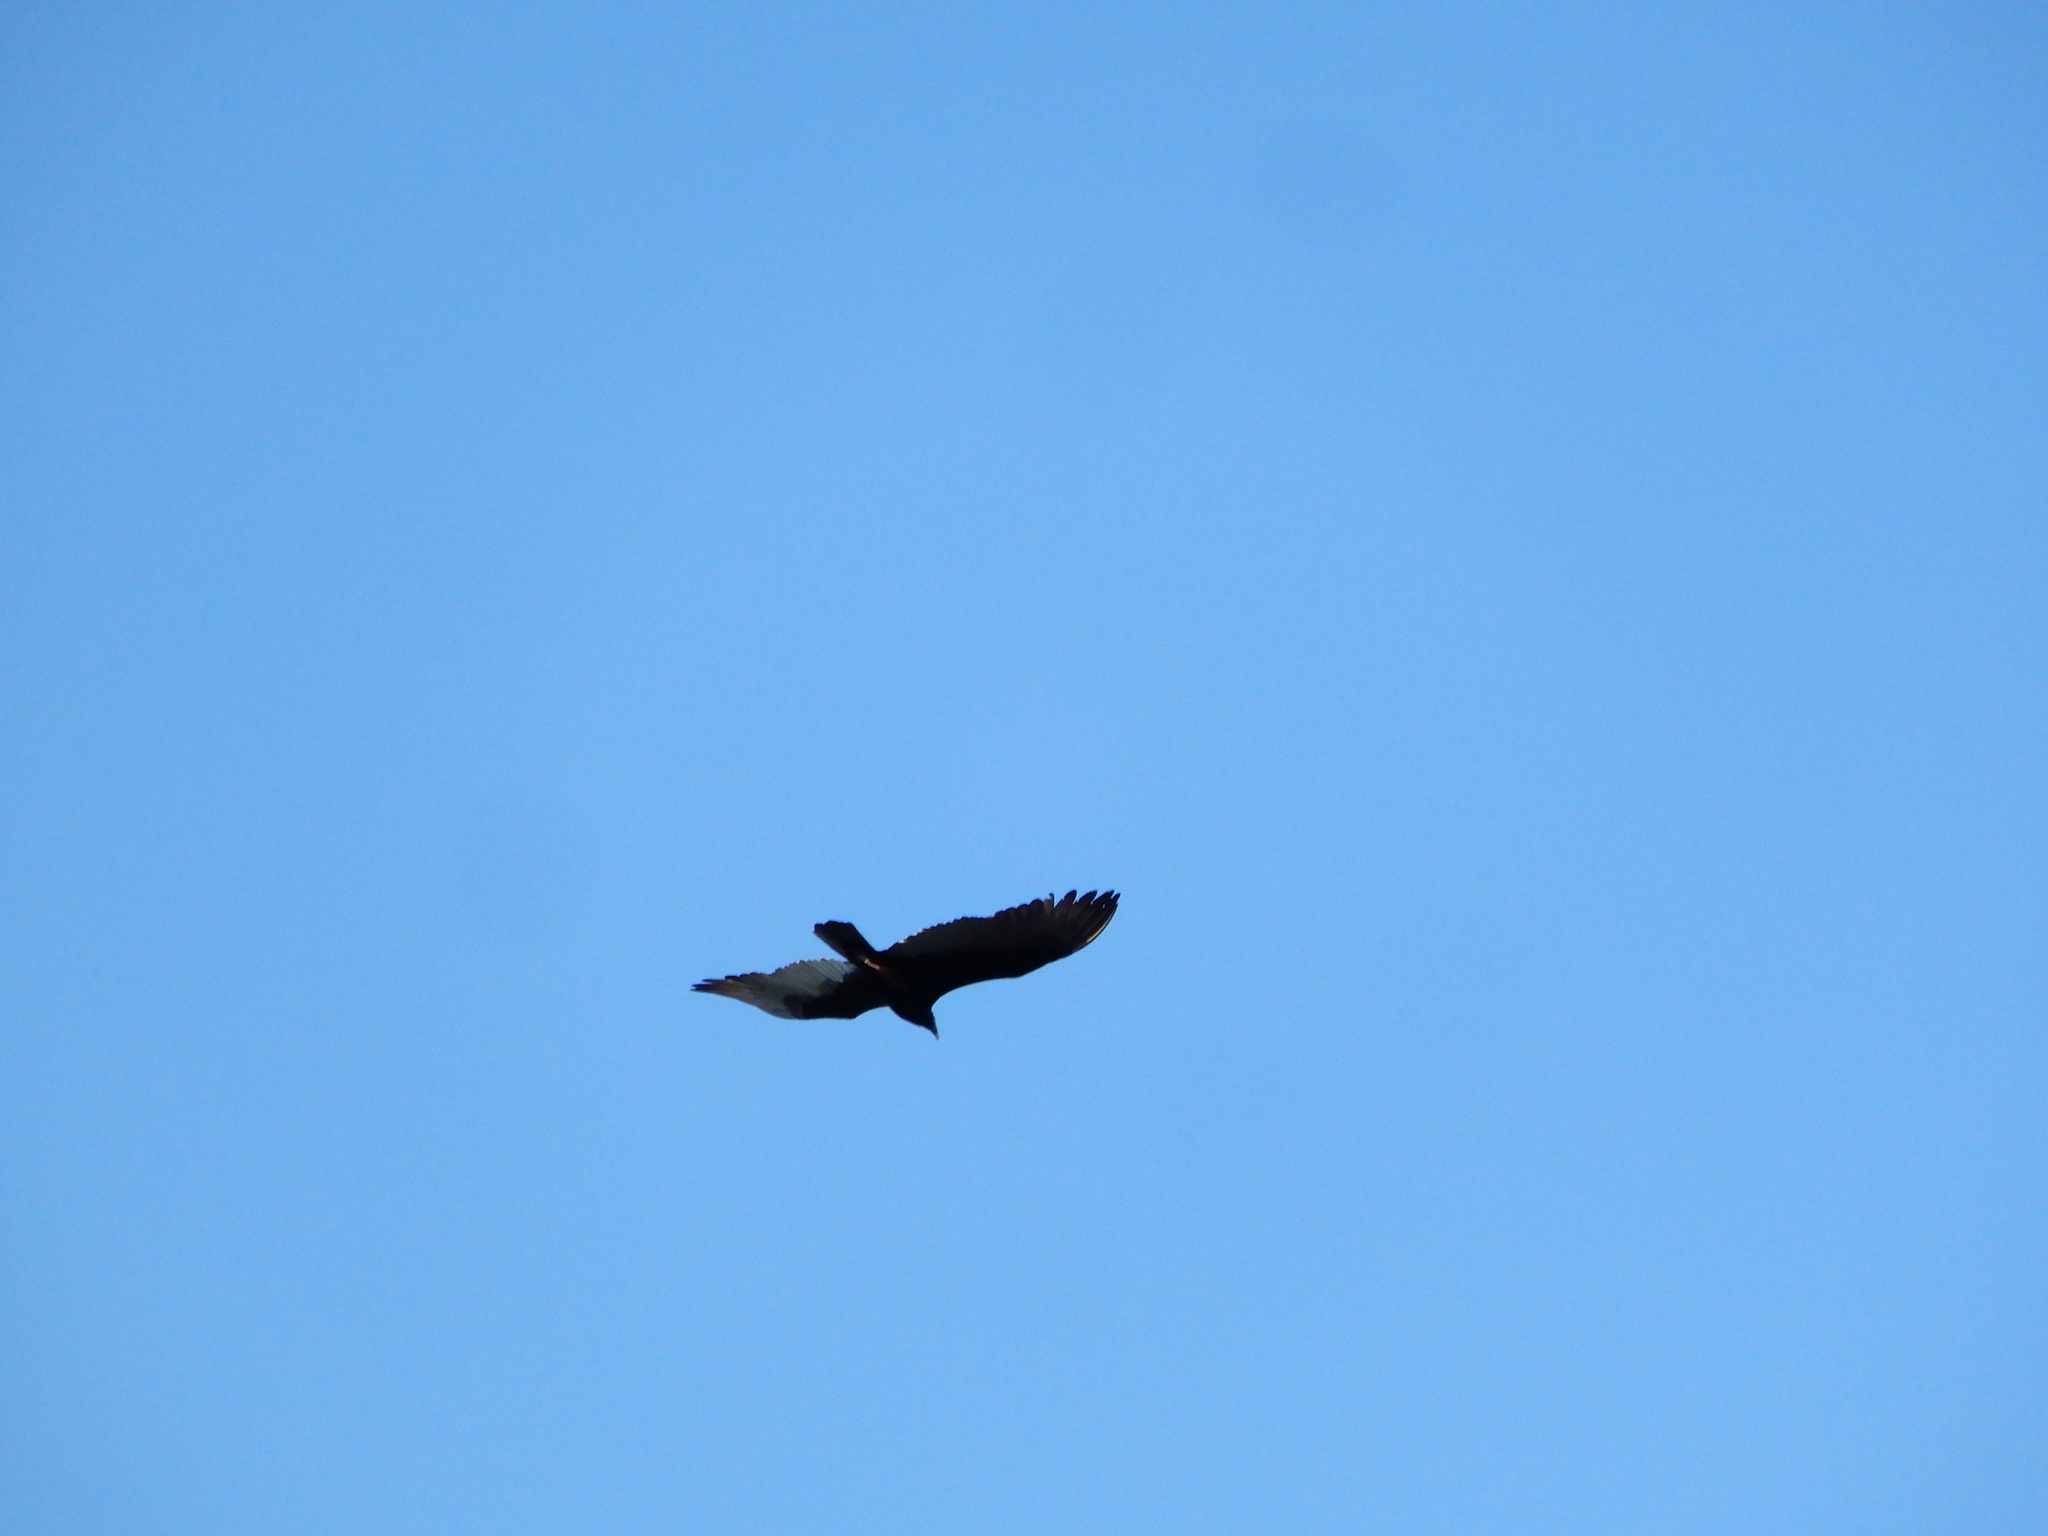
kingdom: Animalia
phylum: Chordata
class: Aves
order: Accipitriformes
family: Cathartidae
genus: Cathartes
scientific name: Cathartes aura
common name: Turkey vulture
